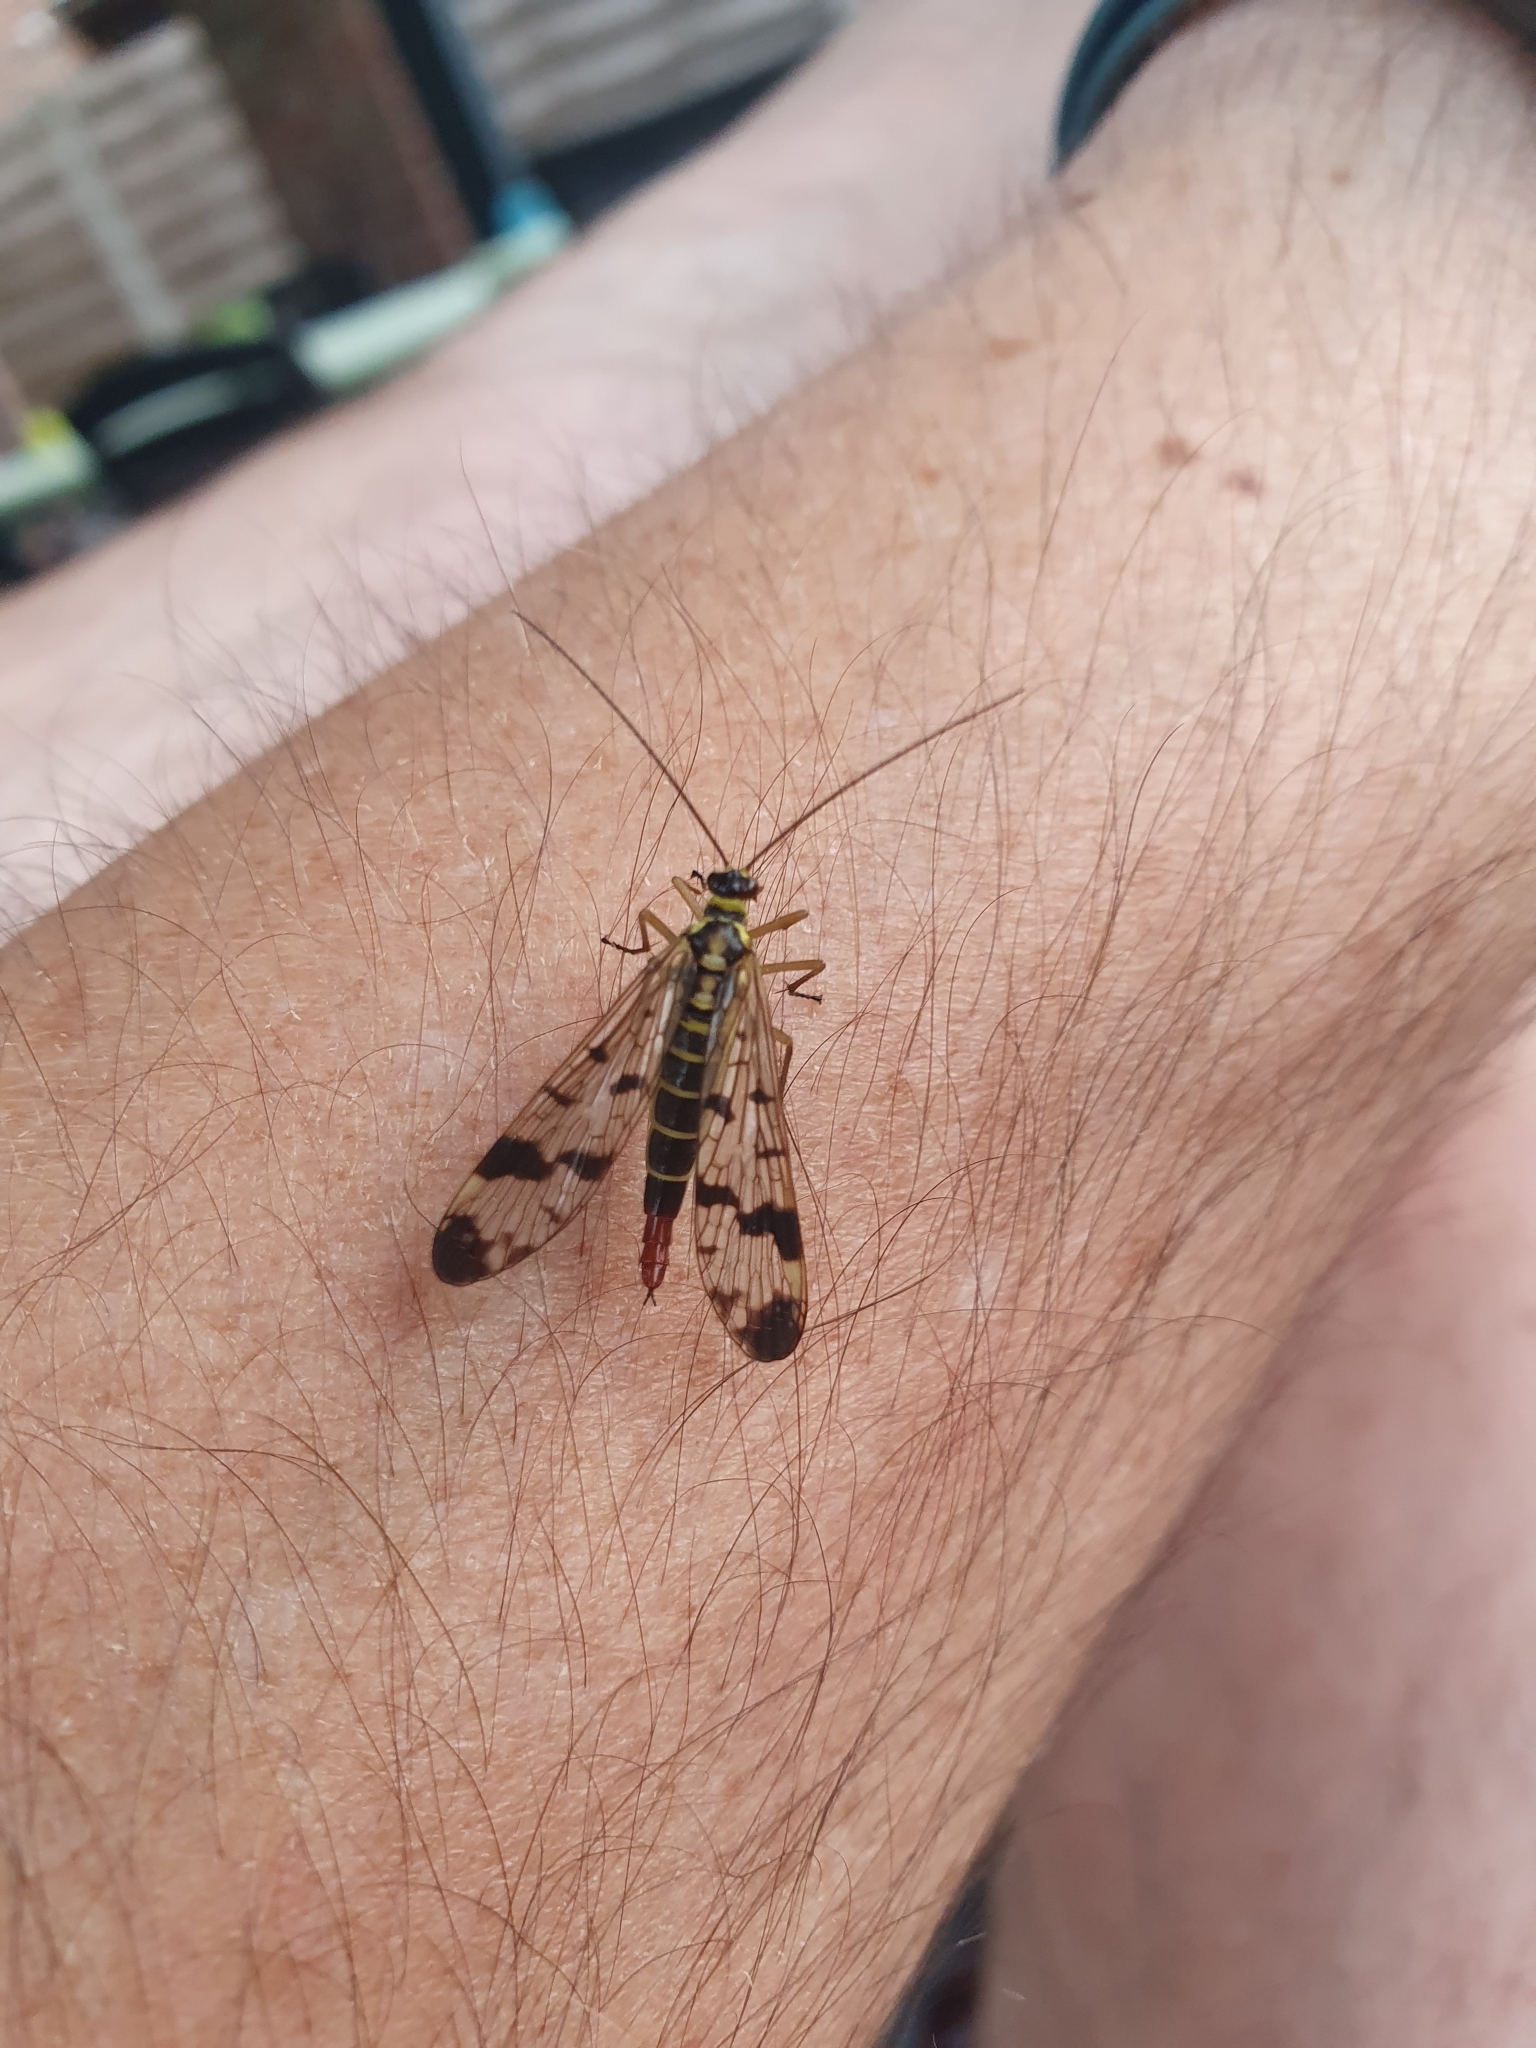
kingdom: Animalia
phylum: Arthropoda
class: Insecta
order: Mecoptera
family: Panorpidae
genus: Panorpa
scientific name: Panorpa communis
